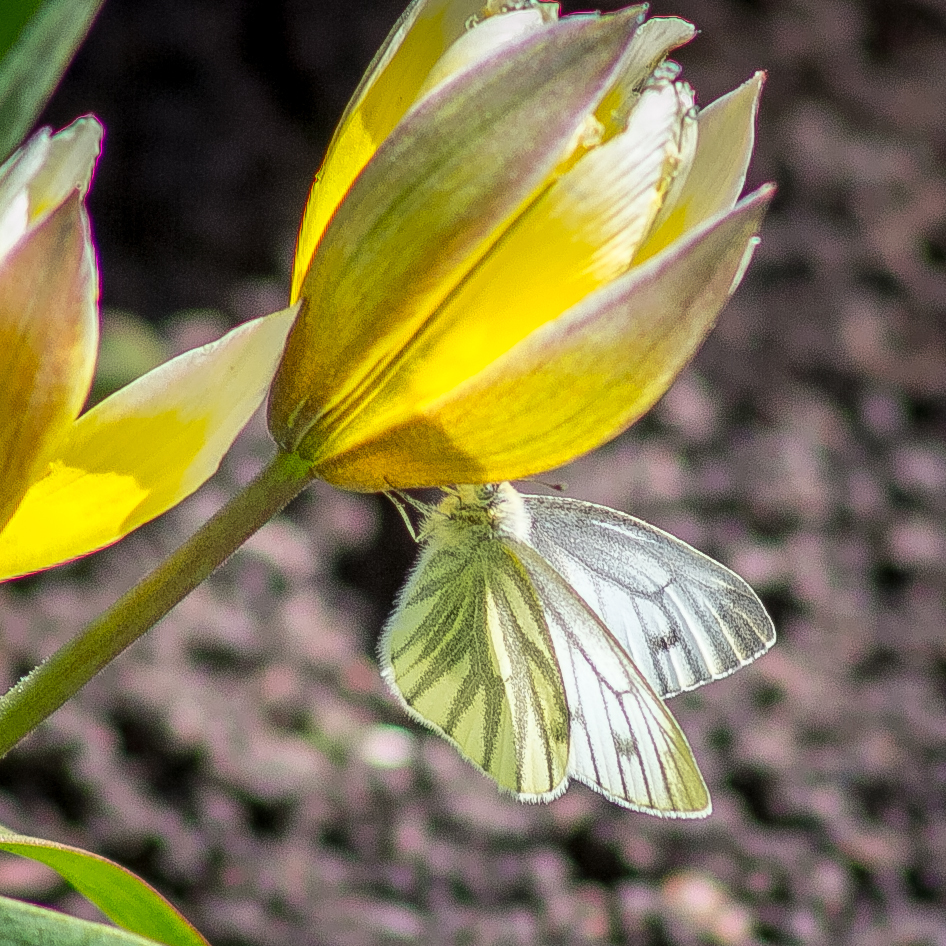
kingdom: Animalia
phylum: Arthropoda
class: Insecta
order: Lepidoptera
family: Pieridae
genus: Pieris
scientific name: Pieris napi
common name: Green-veined white
